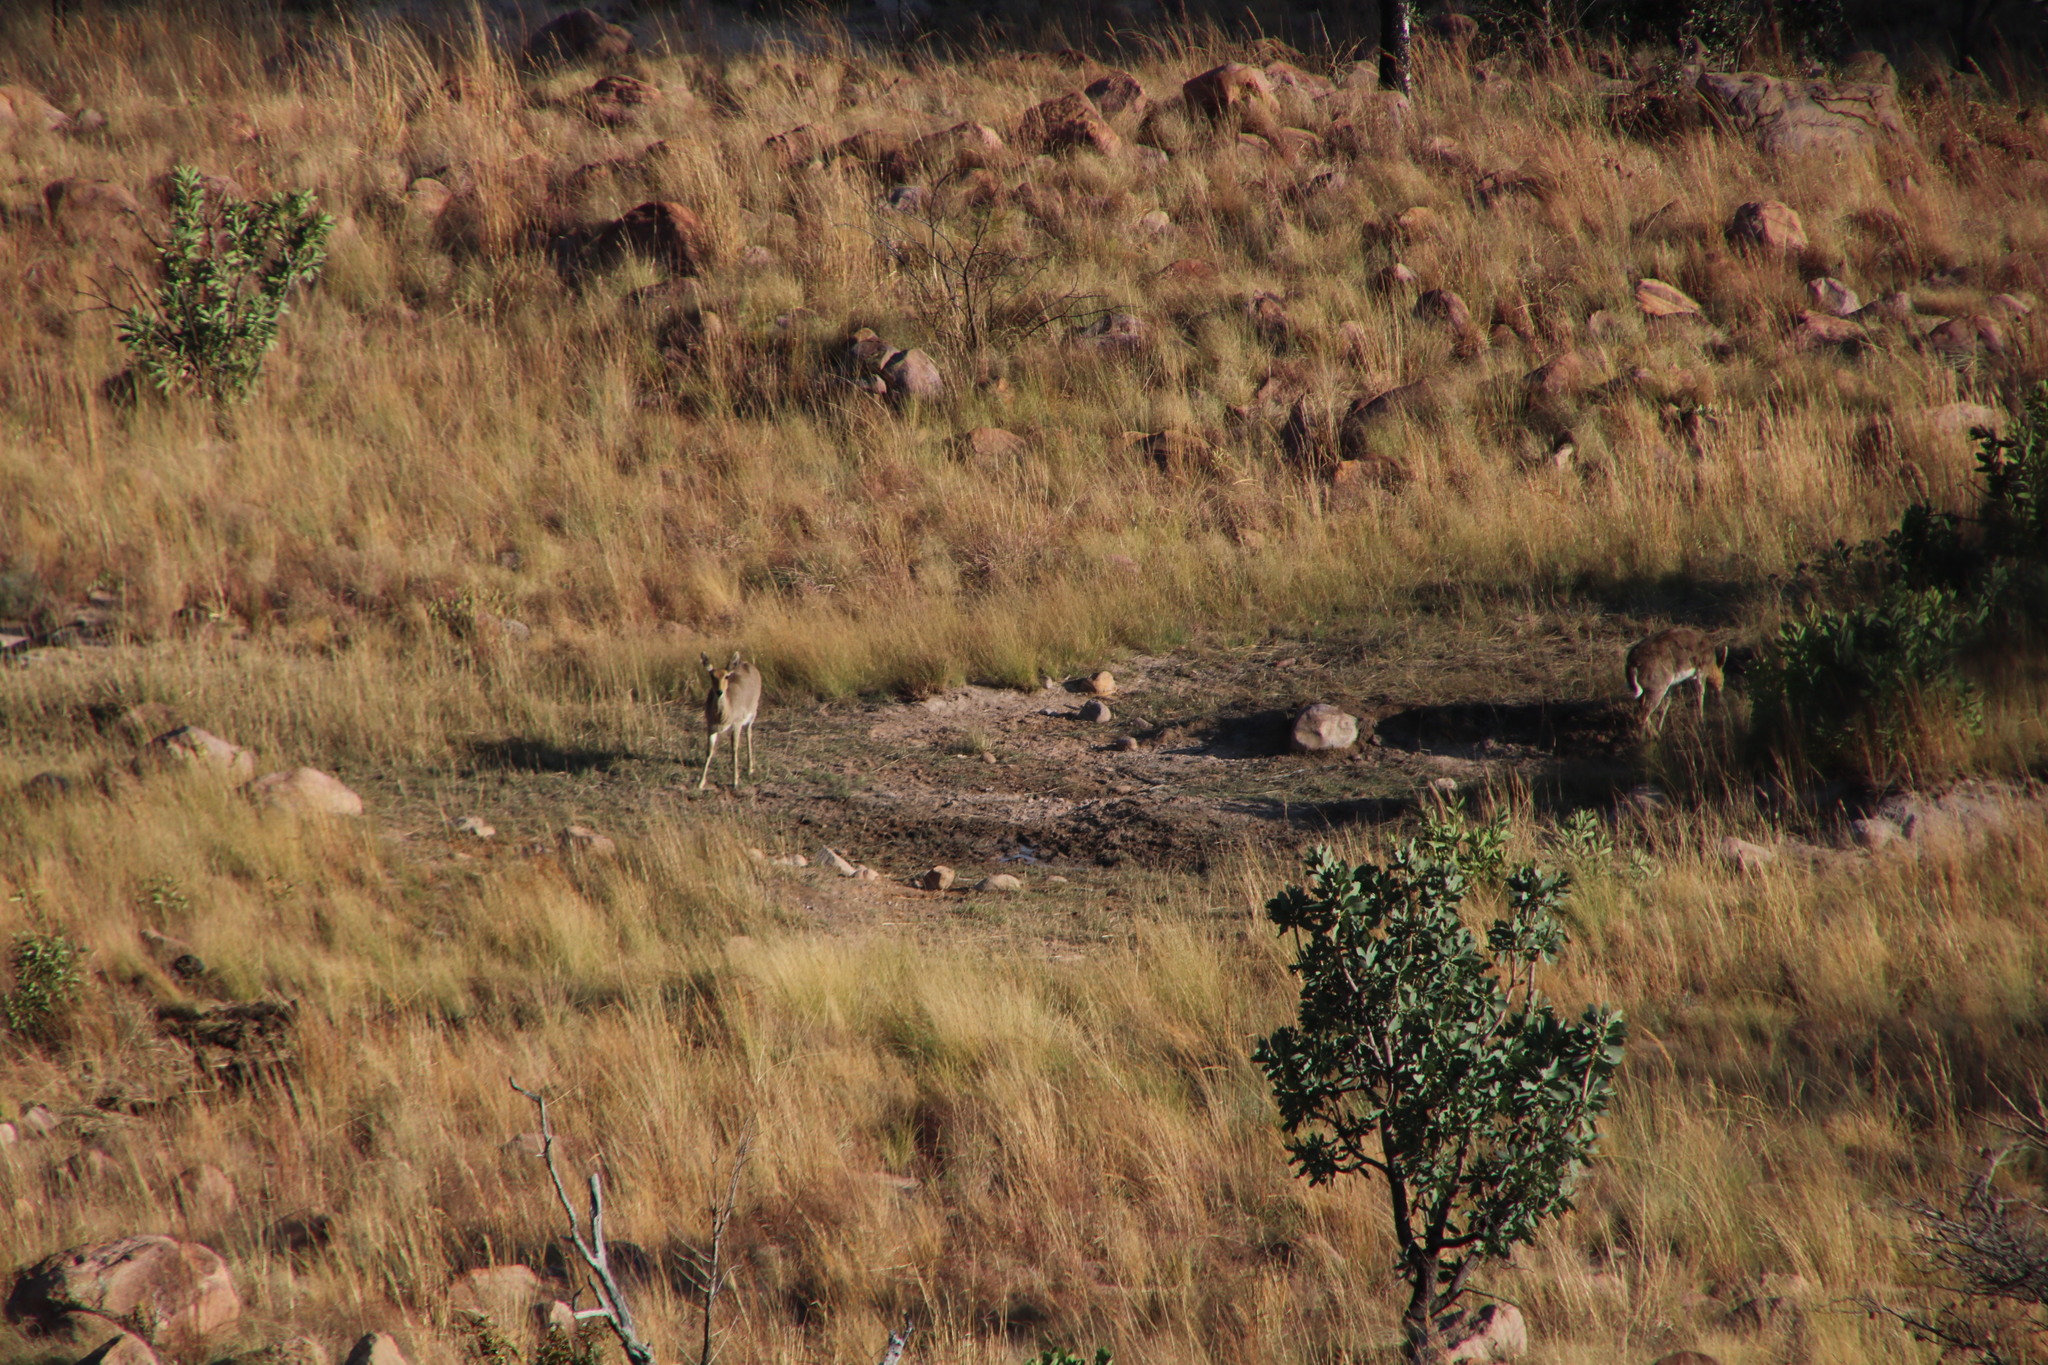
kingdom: Animalia
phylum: Chordata
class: Mammalia
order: Artiodactyla
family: Bovidae
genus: Redunca
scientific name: Redunca fulvorufula
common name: Mountain reedbuck
